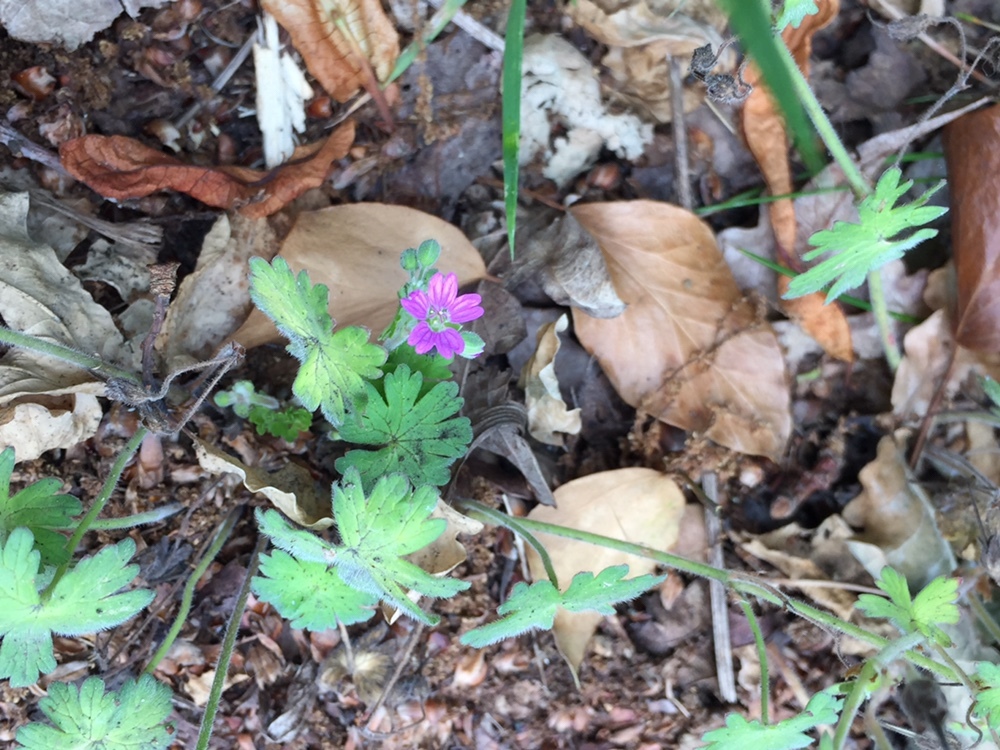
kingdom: Plantae
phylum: Tracheophyta
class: Magnoliopsida
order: Geraniales
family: Geraniaceae
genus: Geranium
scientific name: Geranium molle
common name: Dove's-foot crane's-bill
